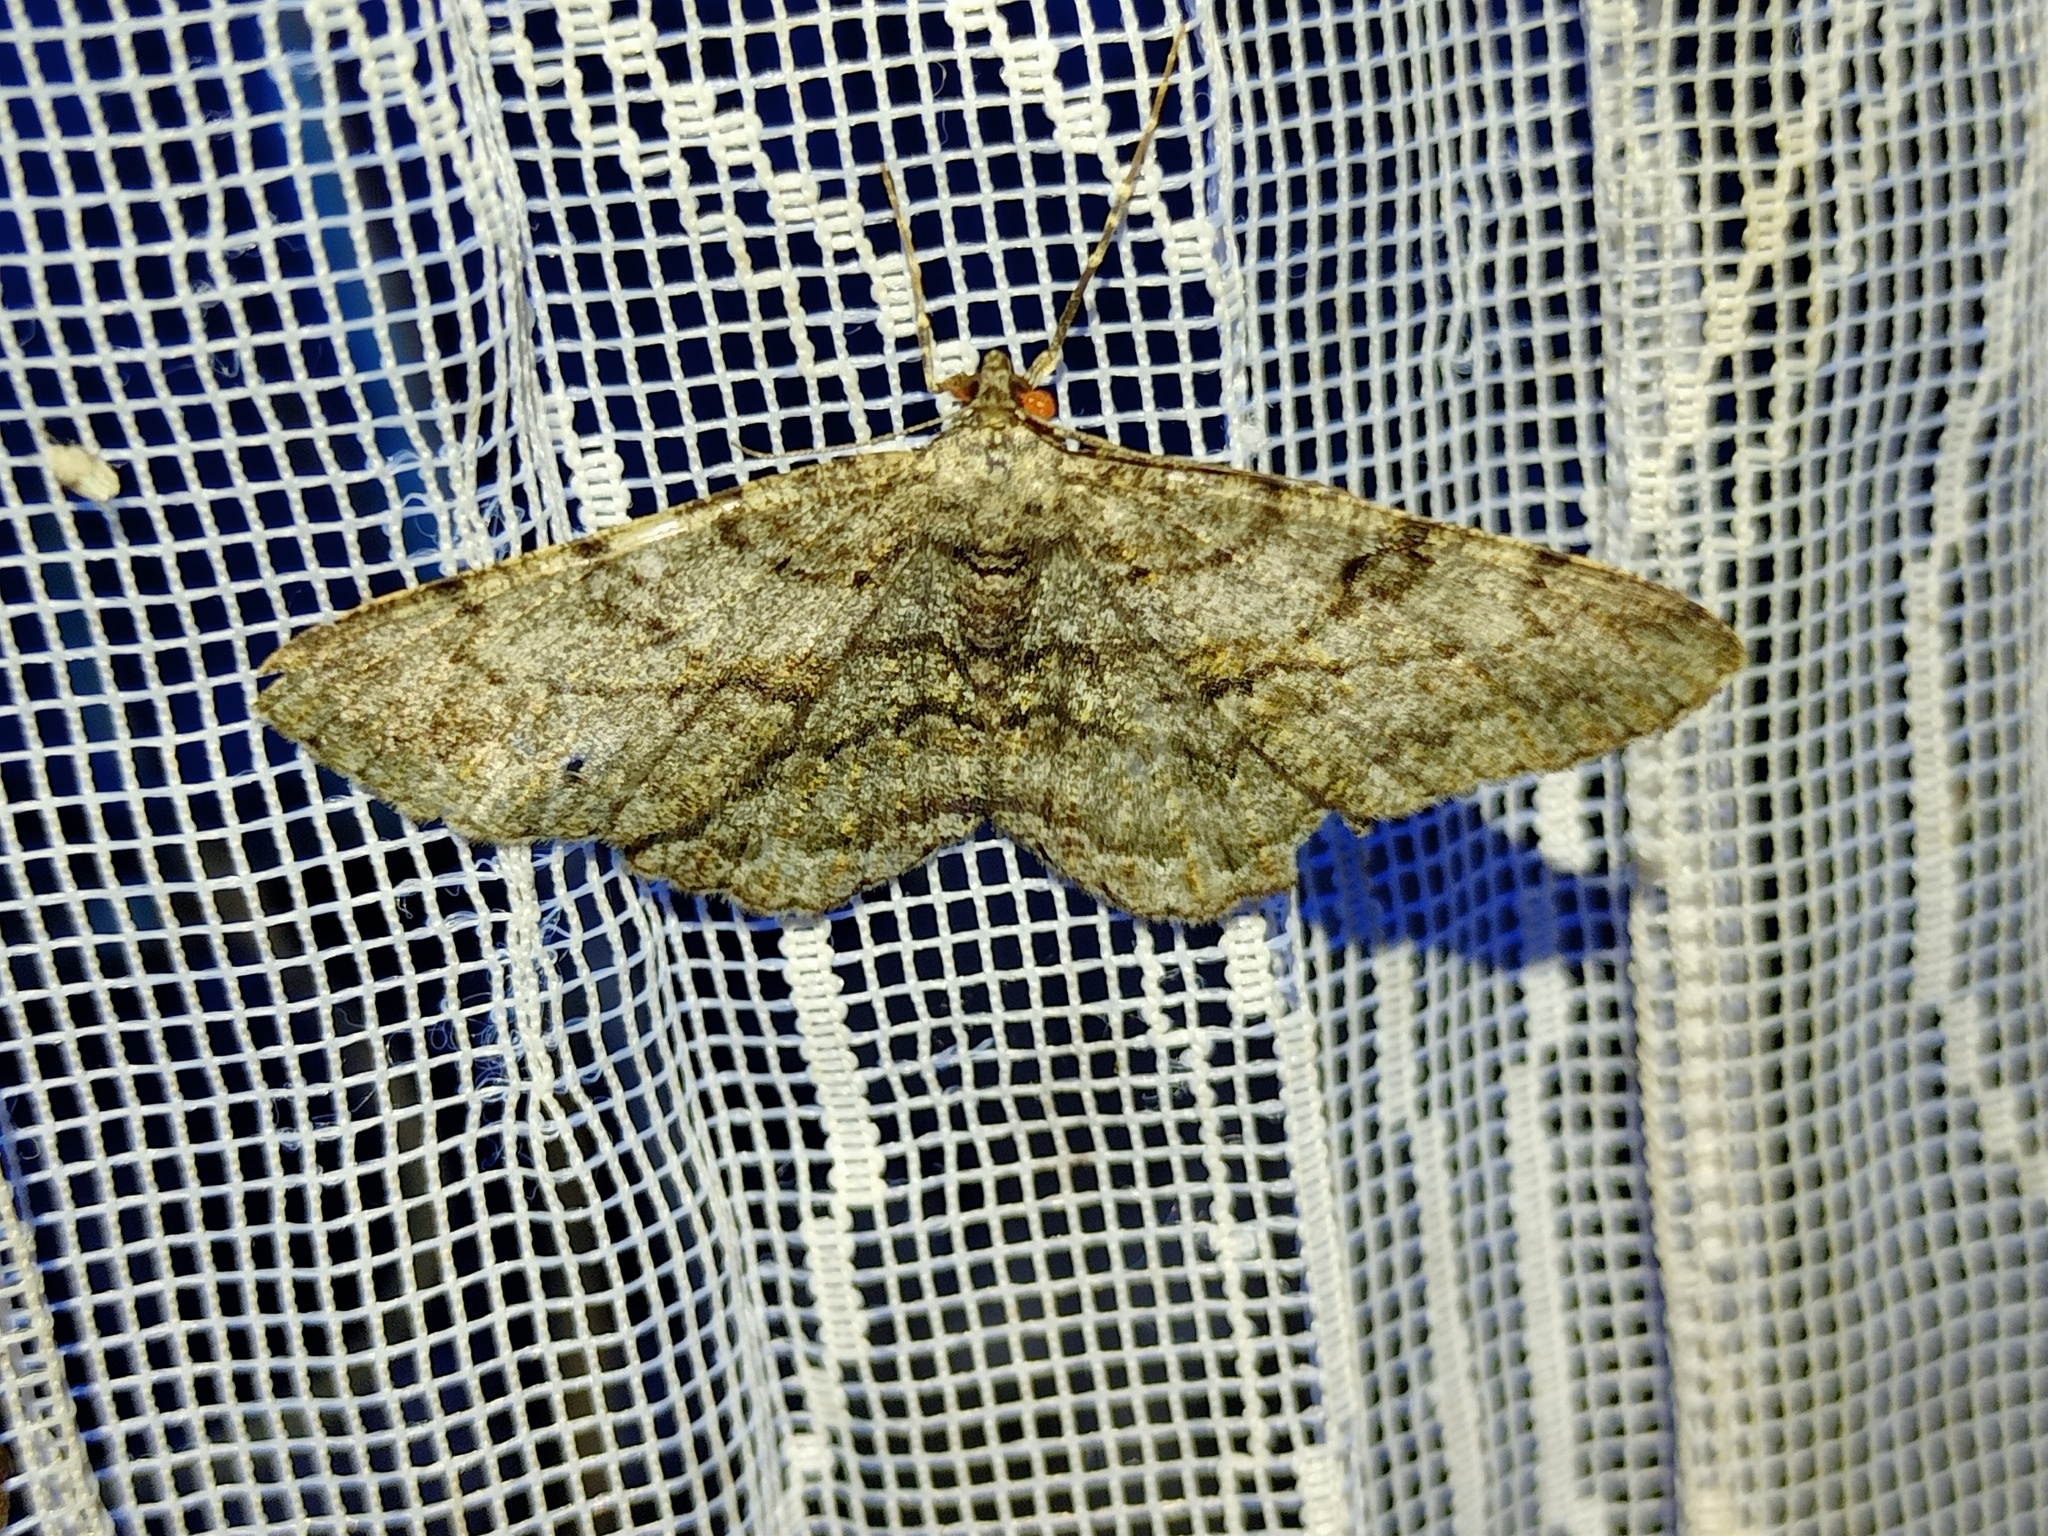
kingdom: Animalia
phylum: Arthropoda
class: Insecta
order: Lepidoptera
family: Geometridae
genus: Peribatodes
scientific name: Peribatodes rhomboidaria
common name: Willow beauty
